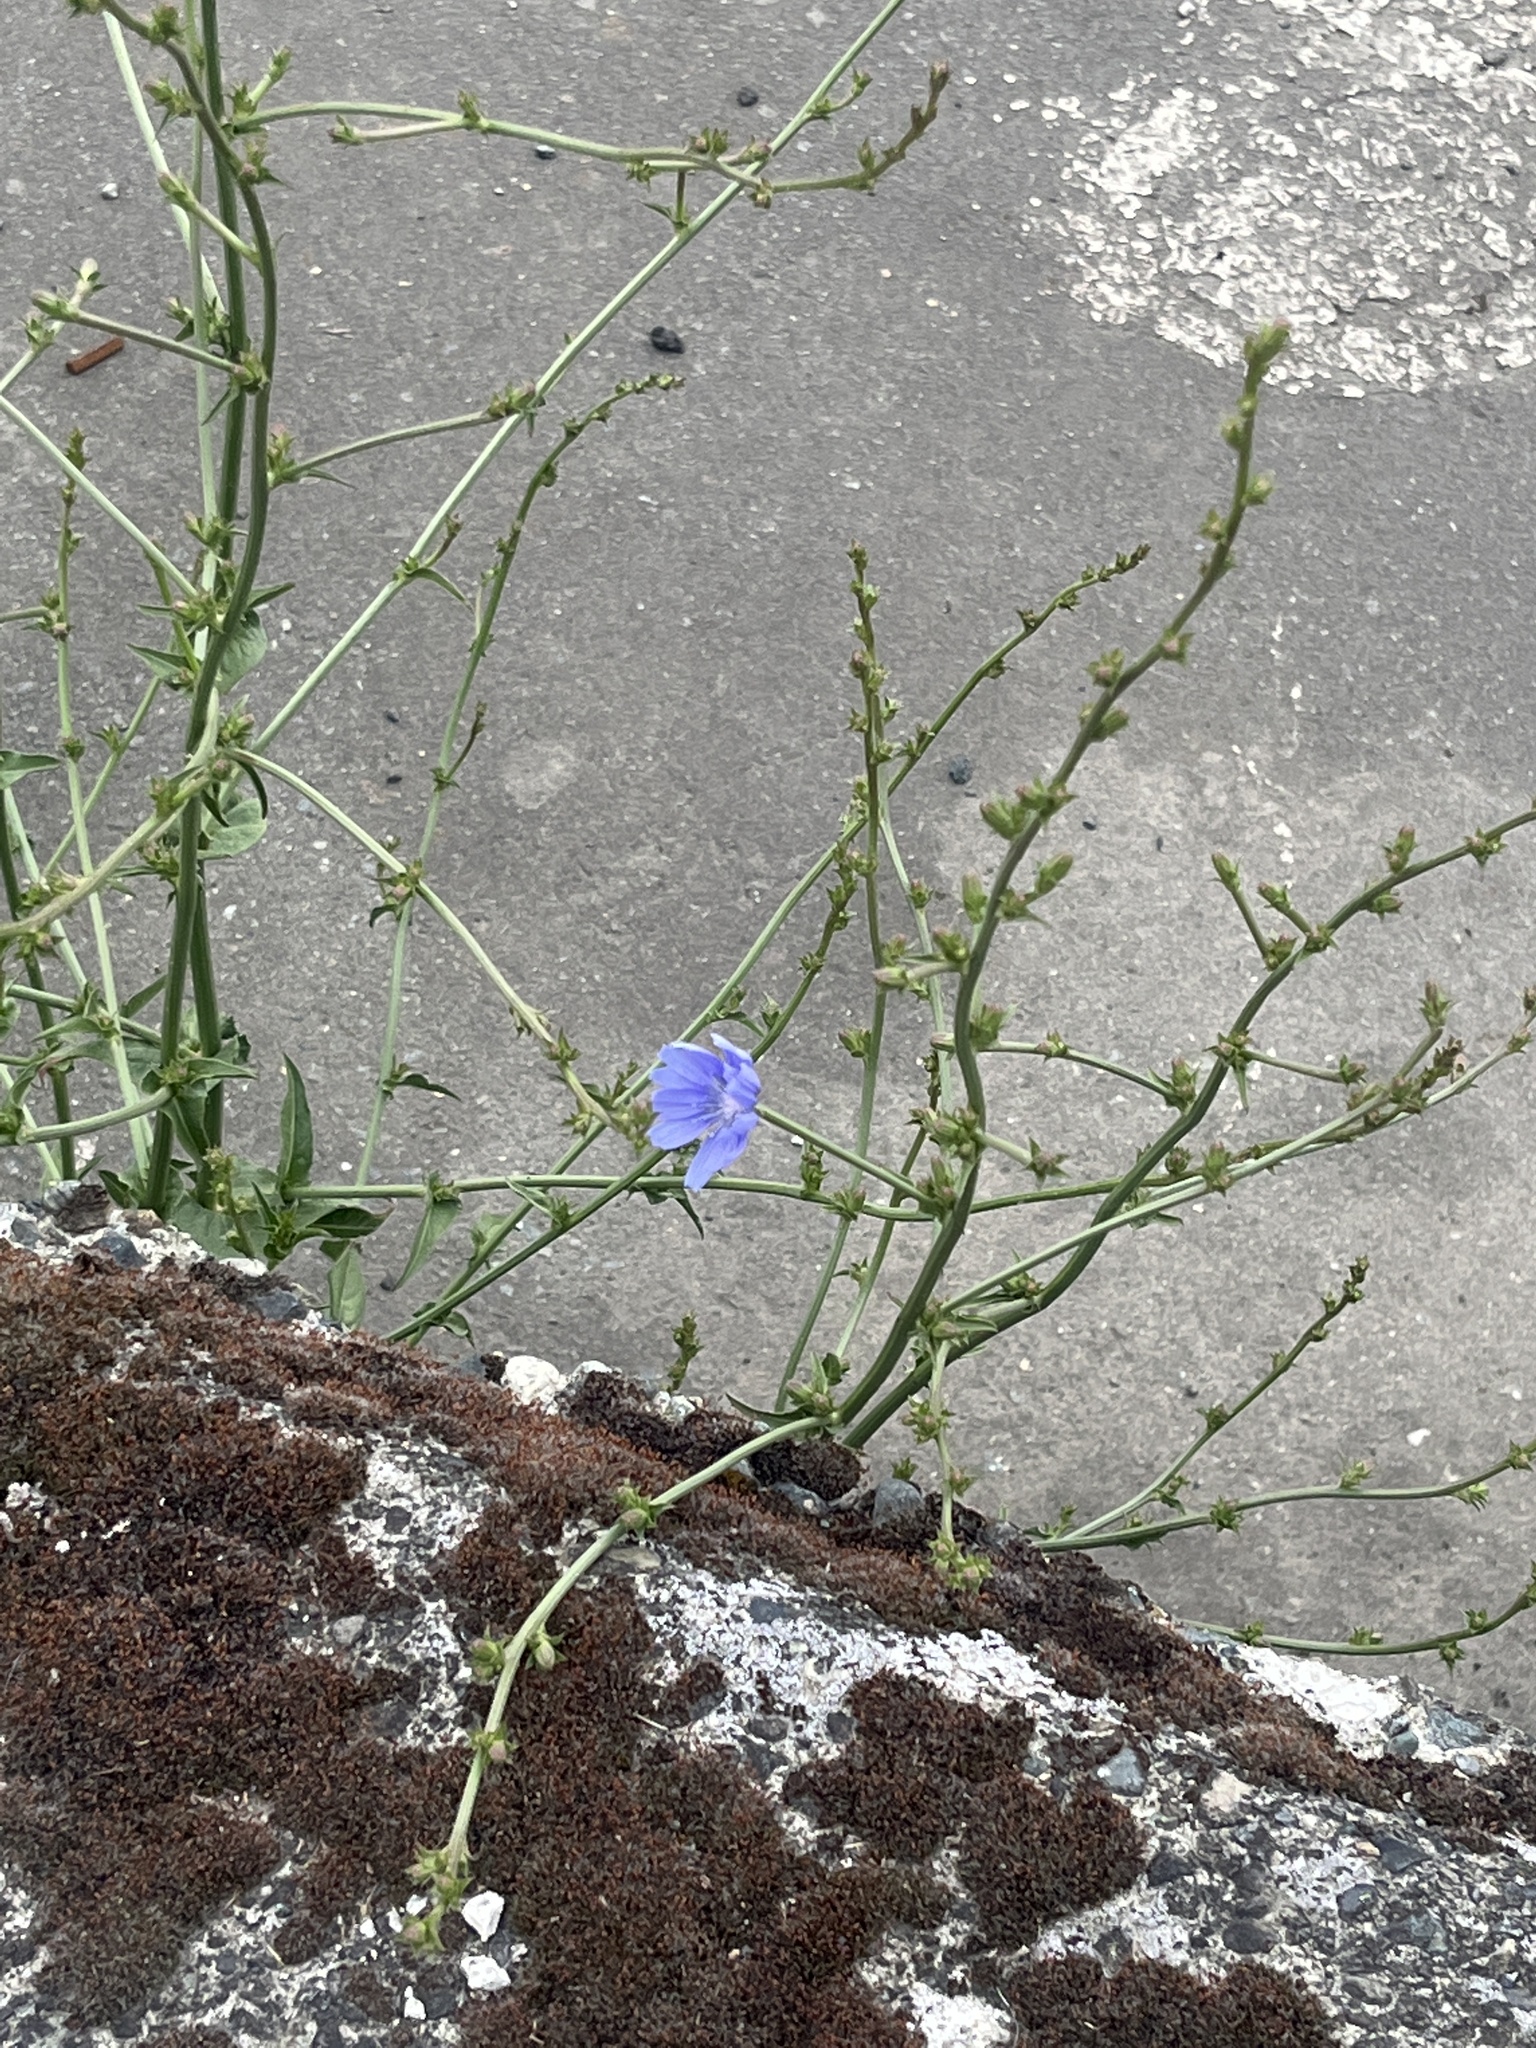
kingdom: Plantae
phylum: Tracheophyta
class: Magnoliopsida
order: Asterales
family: Asteraceae
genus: Cichorium
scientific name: Cichorium intybus
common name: Chicory
